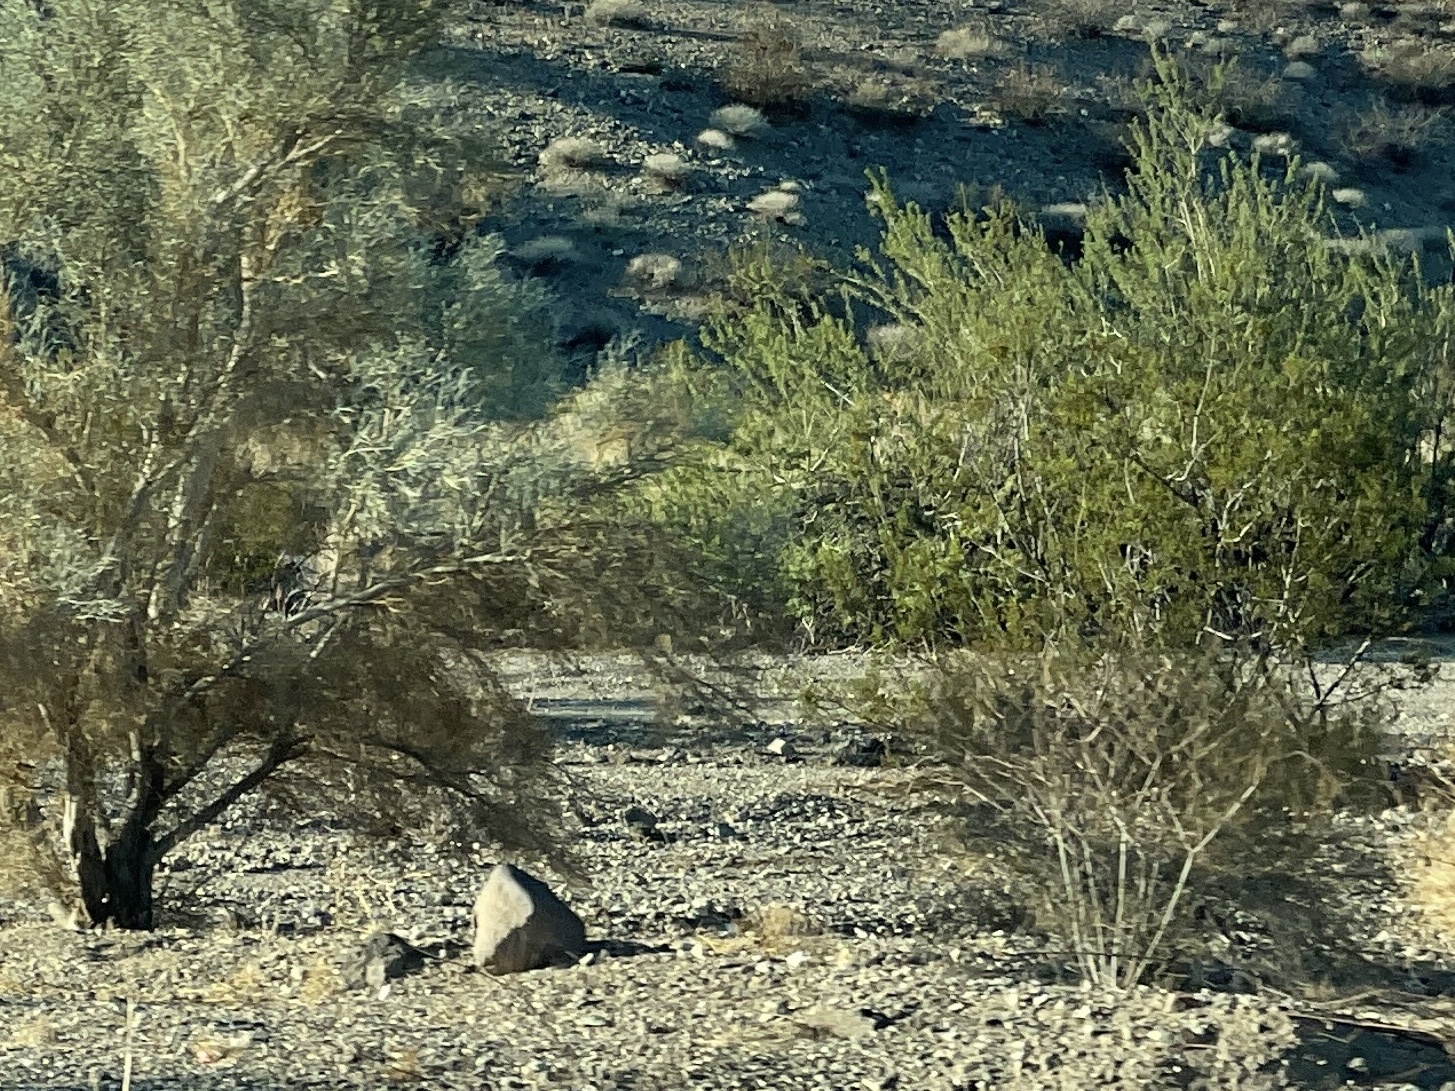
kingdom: Plantae
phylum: Tracheophyta
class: Magnoliopsida
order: Zygophyllales
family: Zygophyllaceae
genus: Larrea
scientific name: Larrea tridentata
